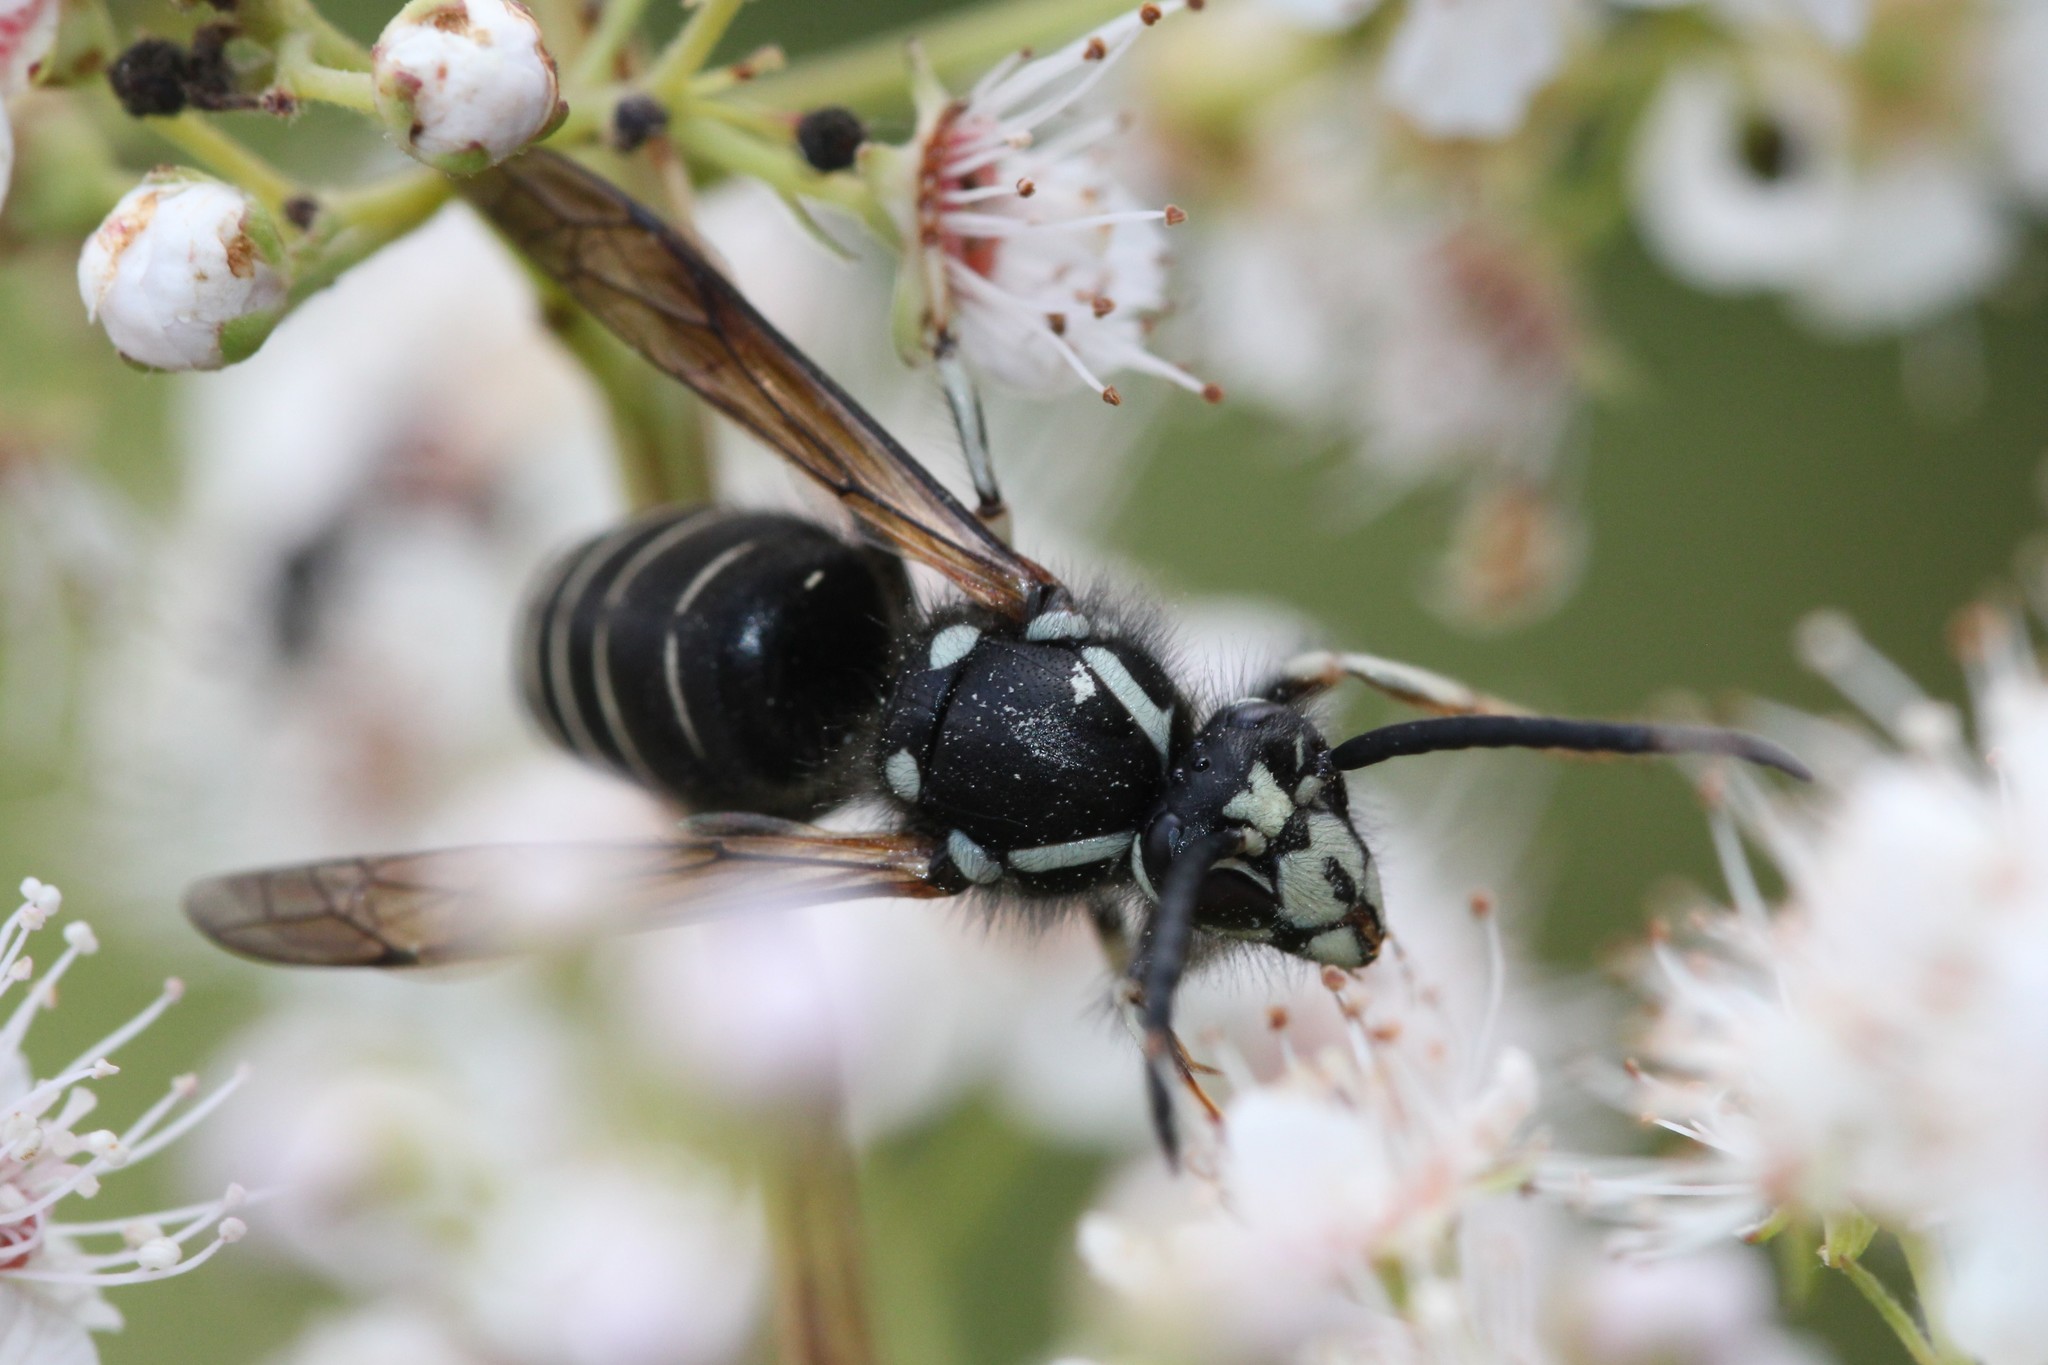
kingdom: Animalia
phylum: Arthropoda
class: Insecta
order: Hymenoptera
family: Vespidae
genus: Dolichovespula
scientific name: Dolichovespula adulterina
